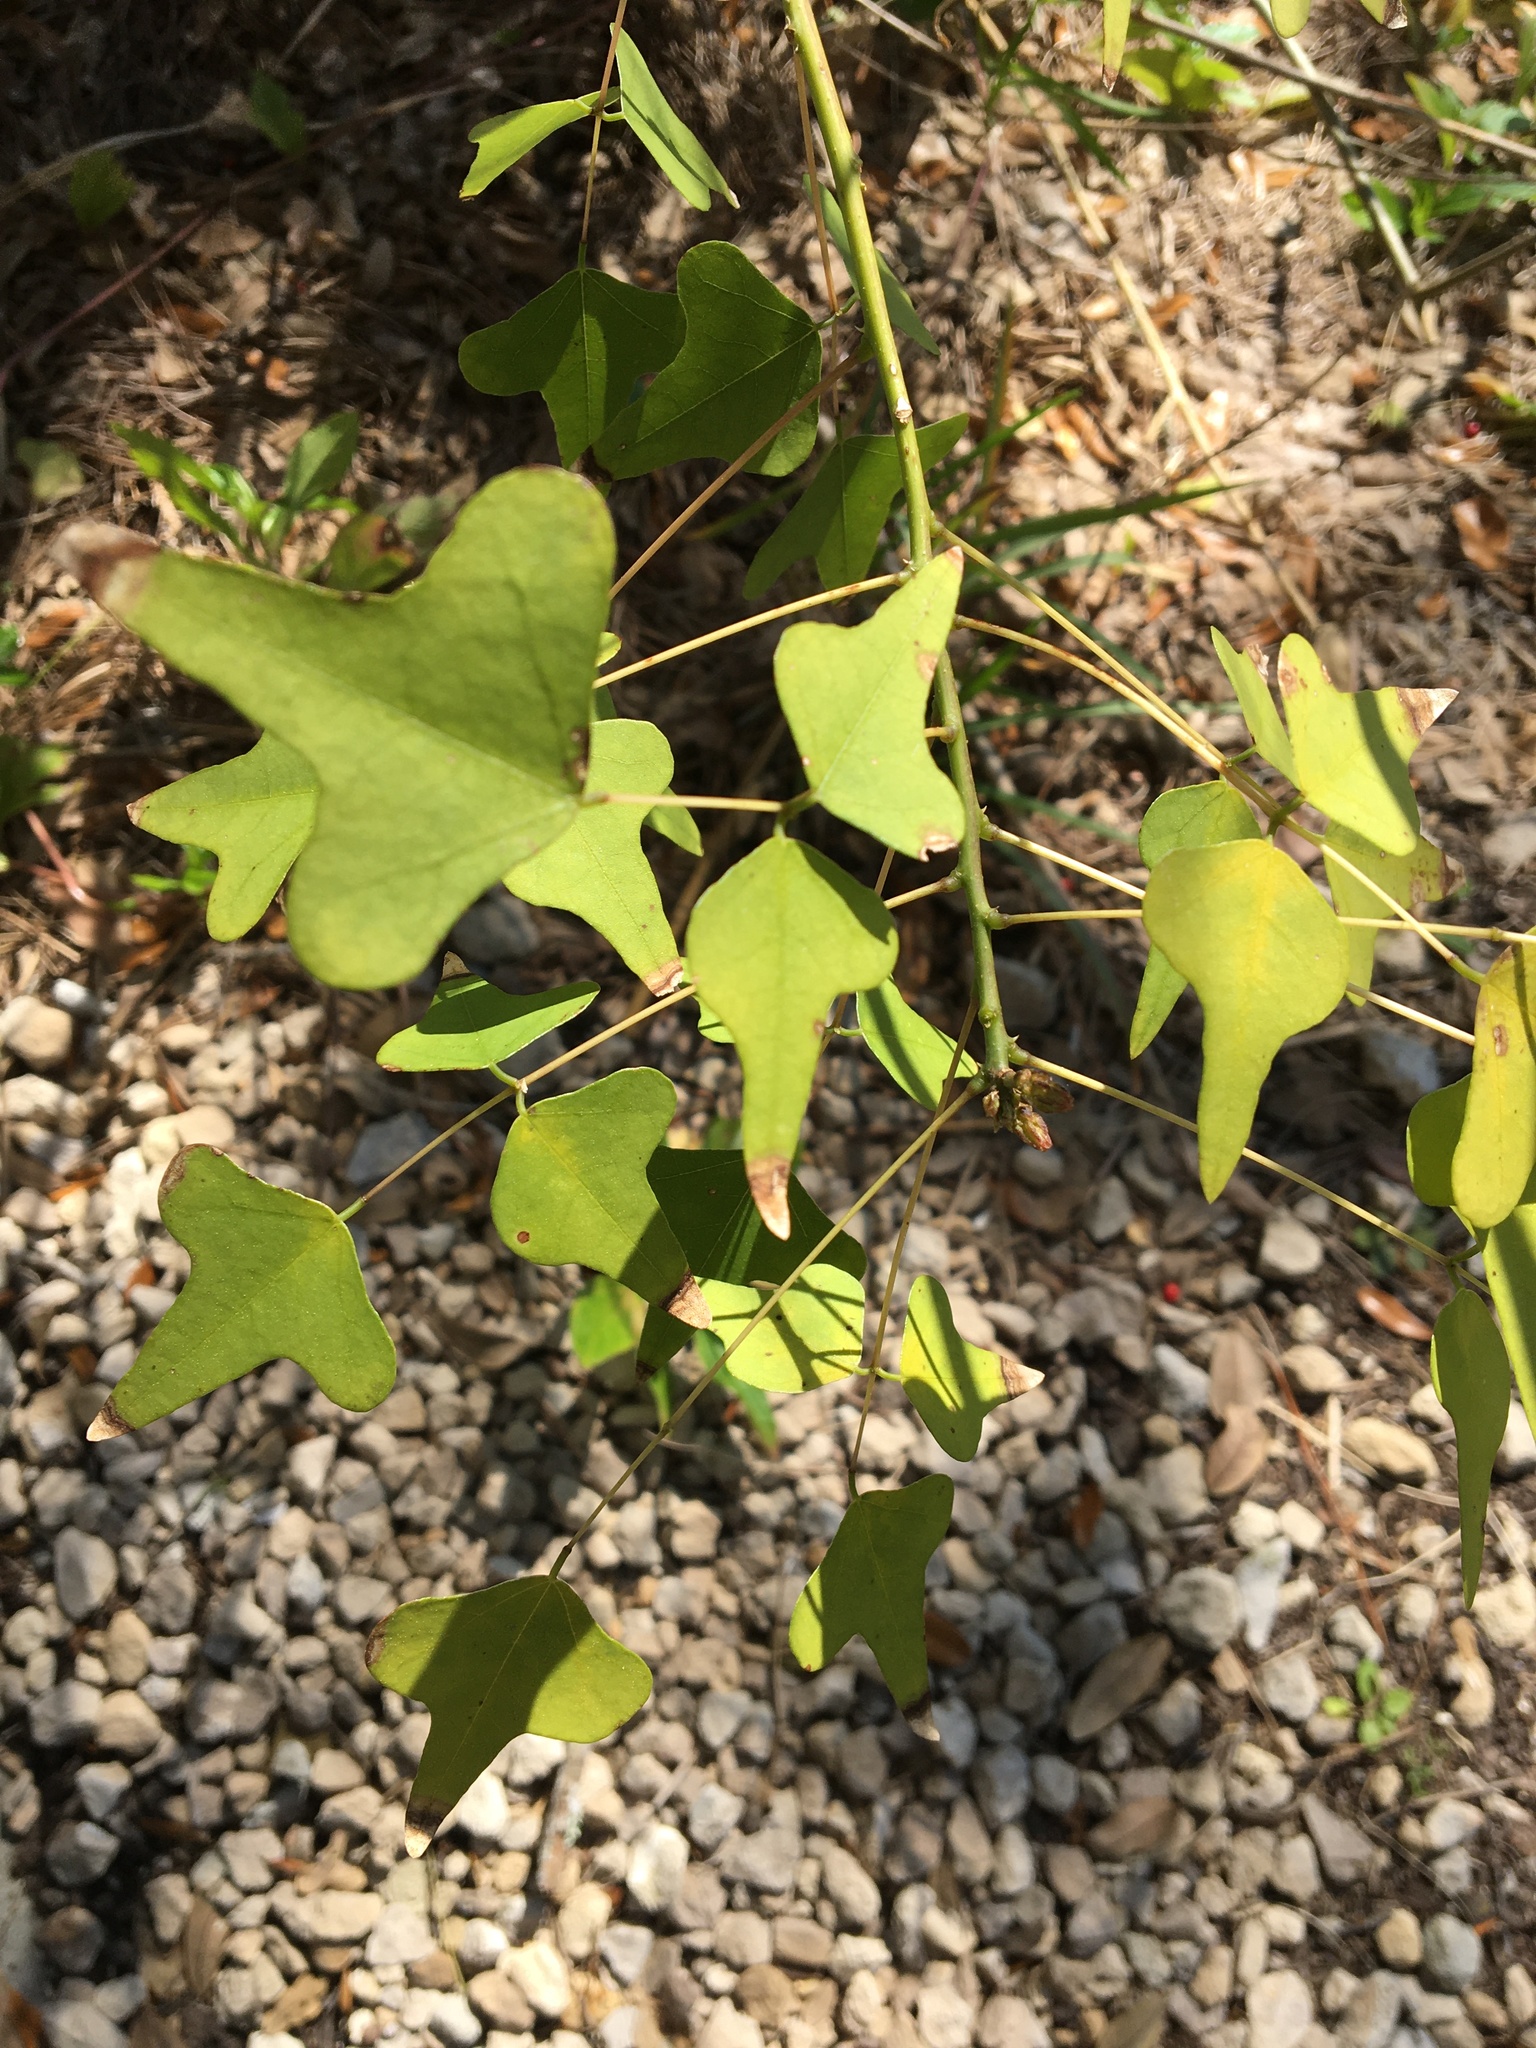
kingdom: Plantae
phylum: Tracheophyta
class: Magnoliopsida
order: Fabales
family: Fabaceae
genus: Erythrina
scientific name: Erythrina herbacea
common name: Coral-bean
